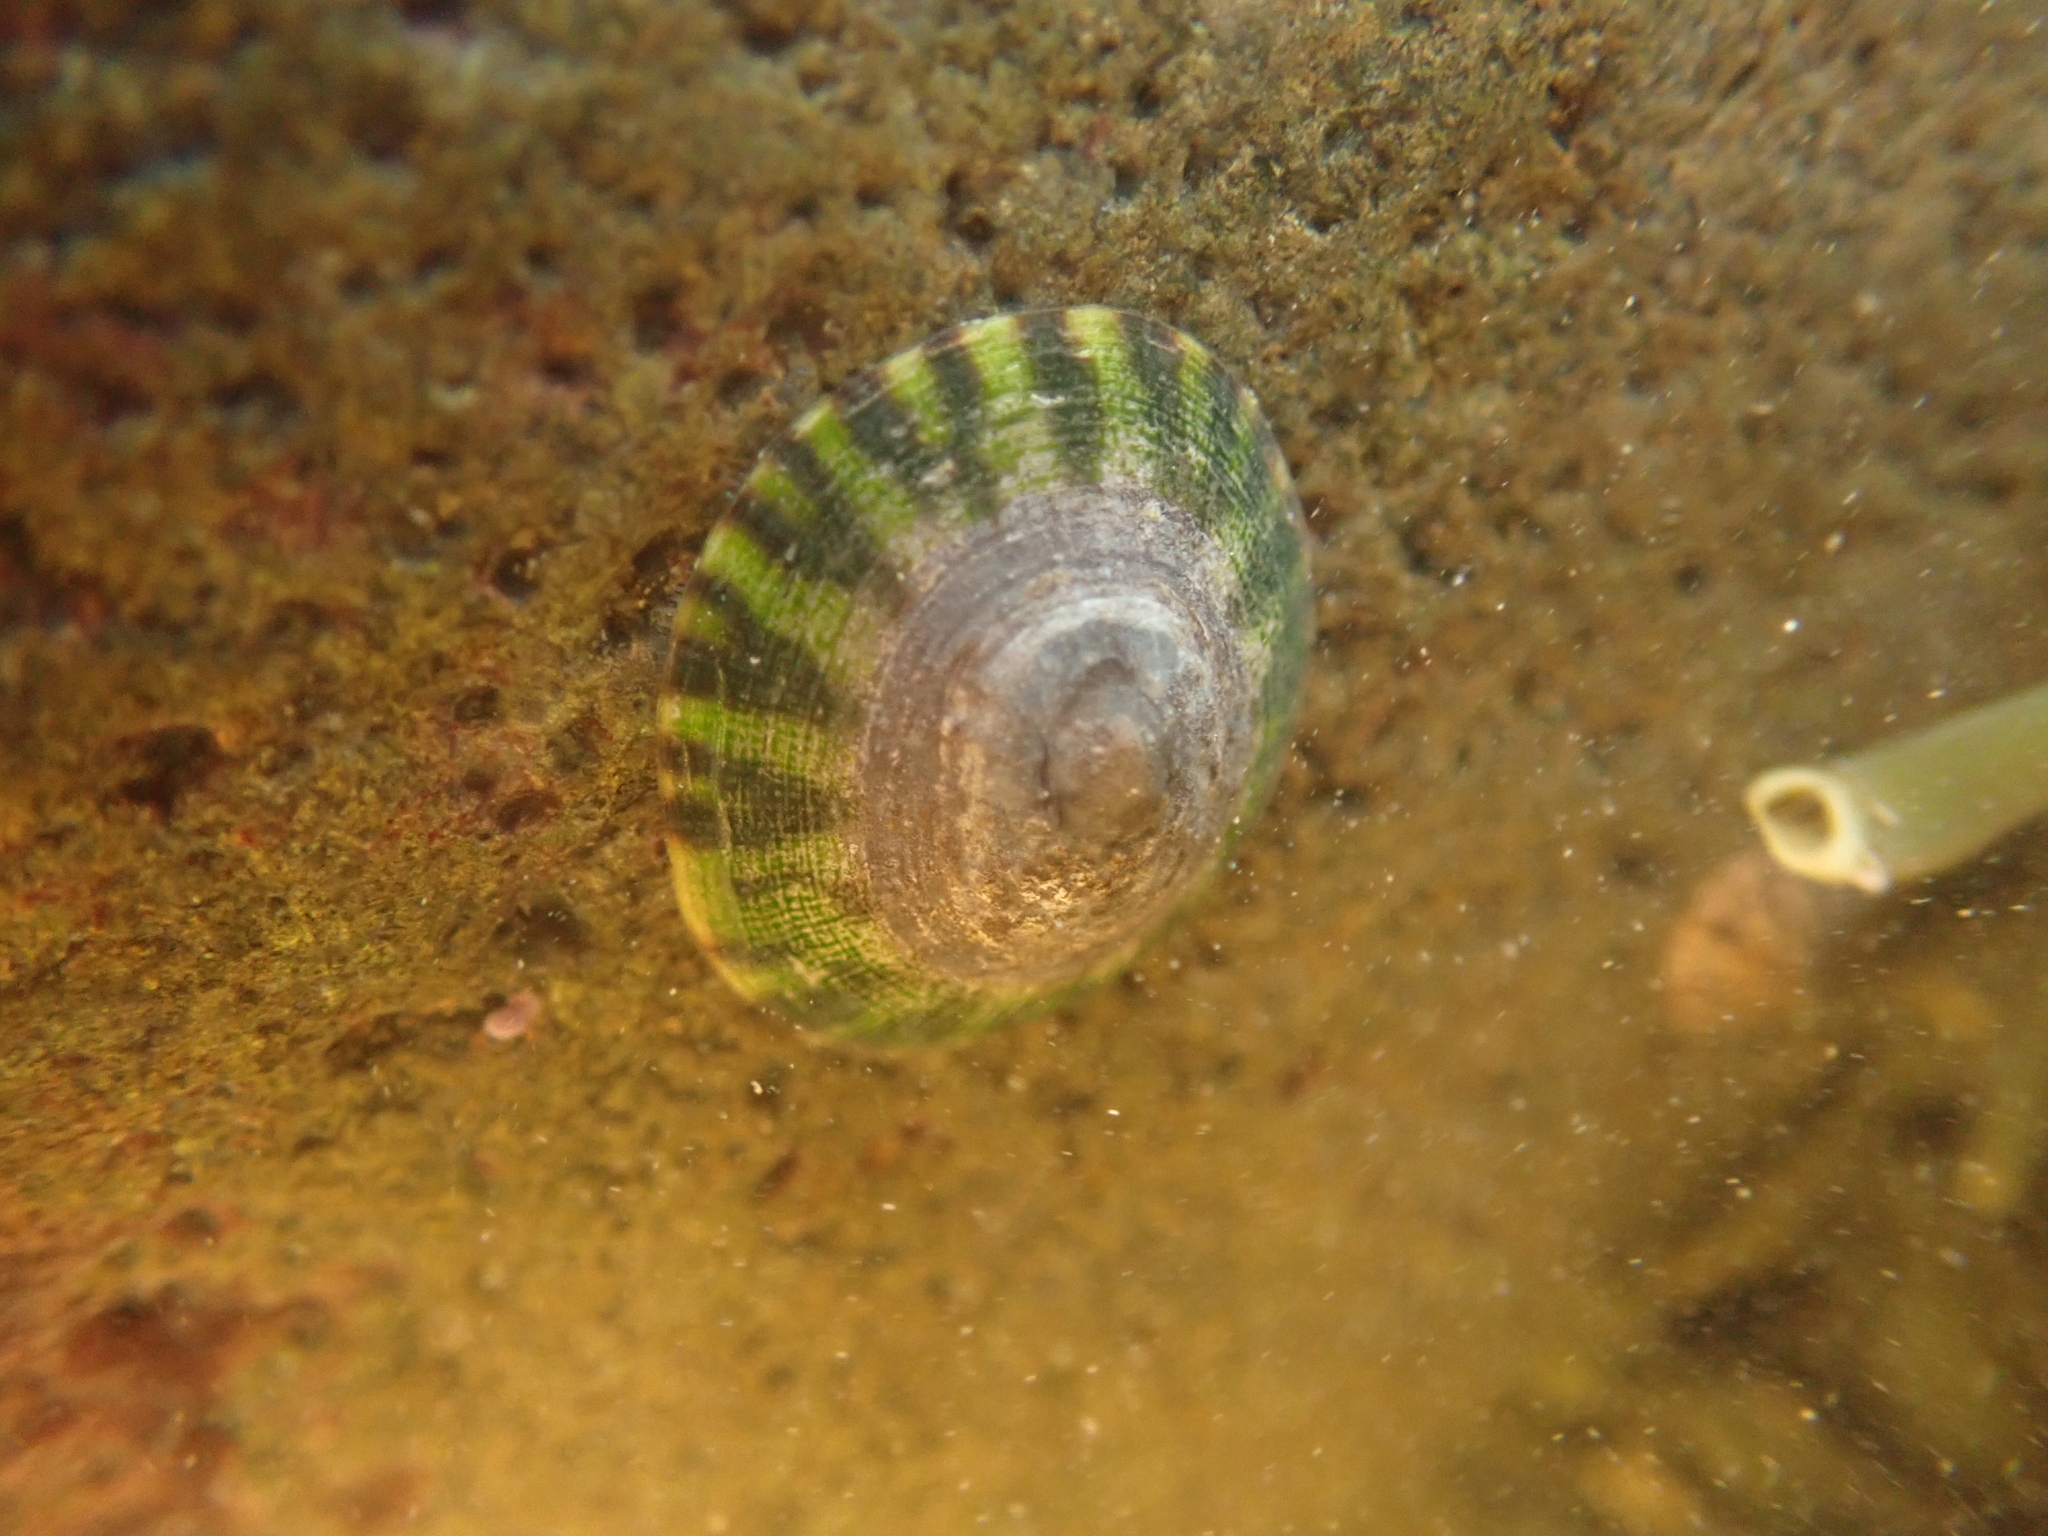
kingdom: Animalia
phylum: Mollusca
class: Gastropoda
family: Lottiidae
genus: Testudinalia
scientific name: Testudinalia testudinalis
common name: Common tortoiseshell limpet
